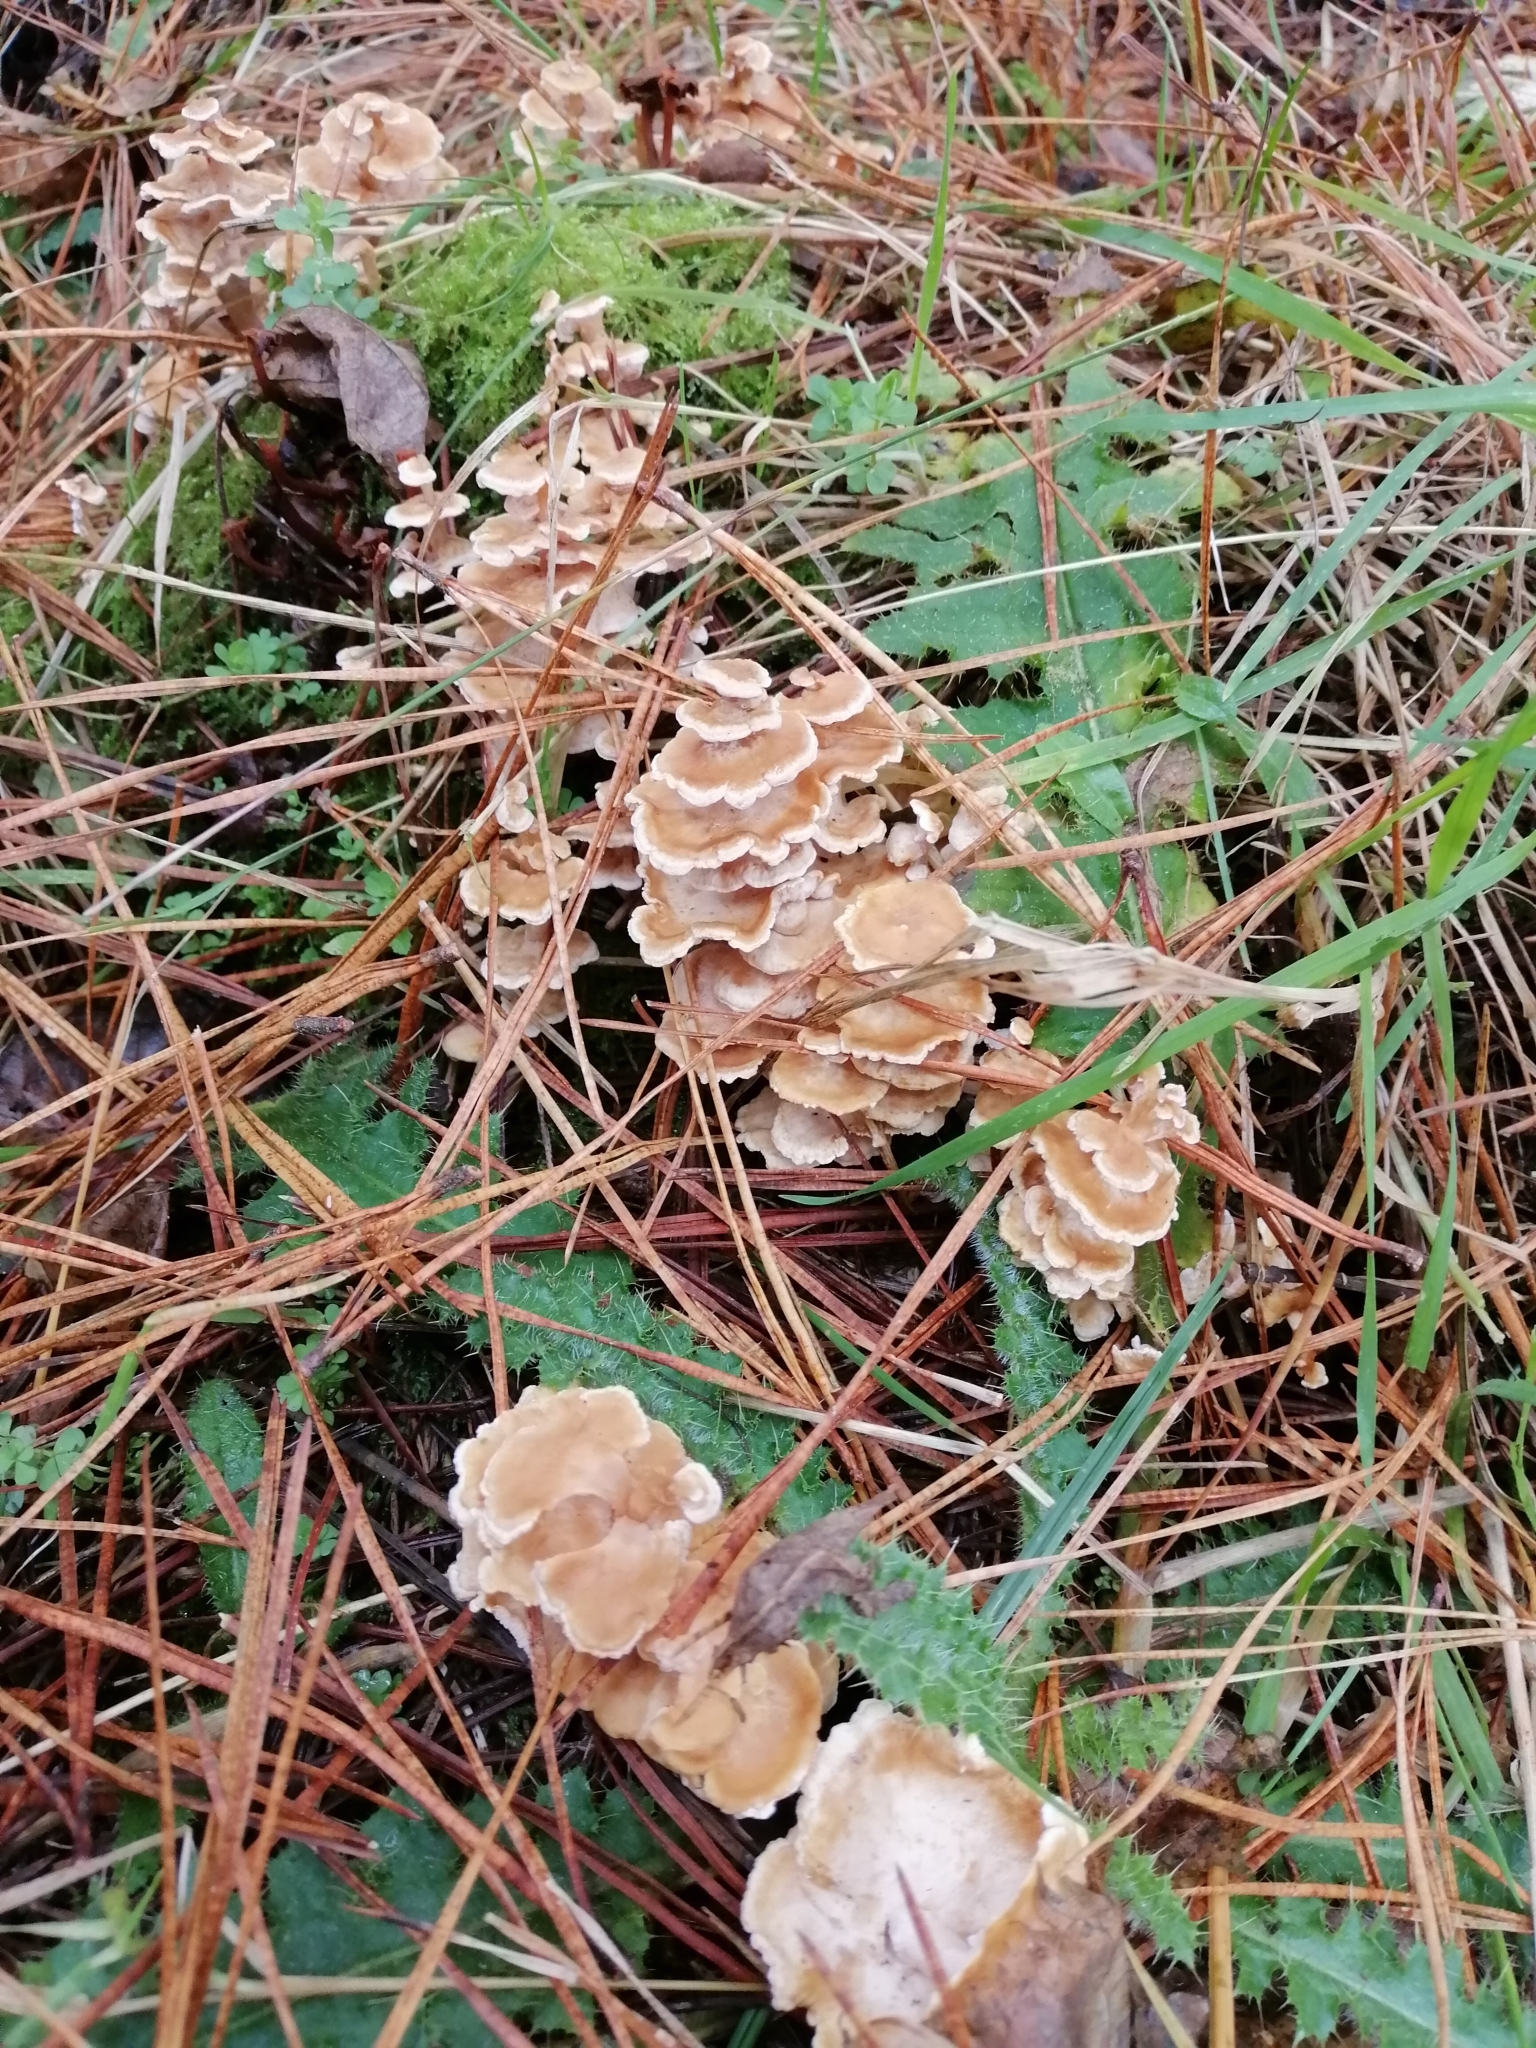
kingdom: Fungi
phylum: Basidiomycota
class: Agaricomycetes
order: Amylocorticiales
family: Amylocorticiaceae
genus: Podoserpula
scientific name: Podoserpula pusio
